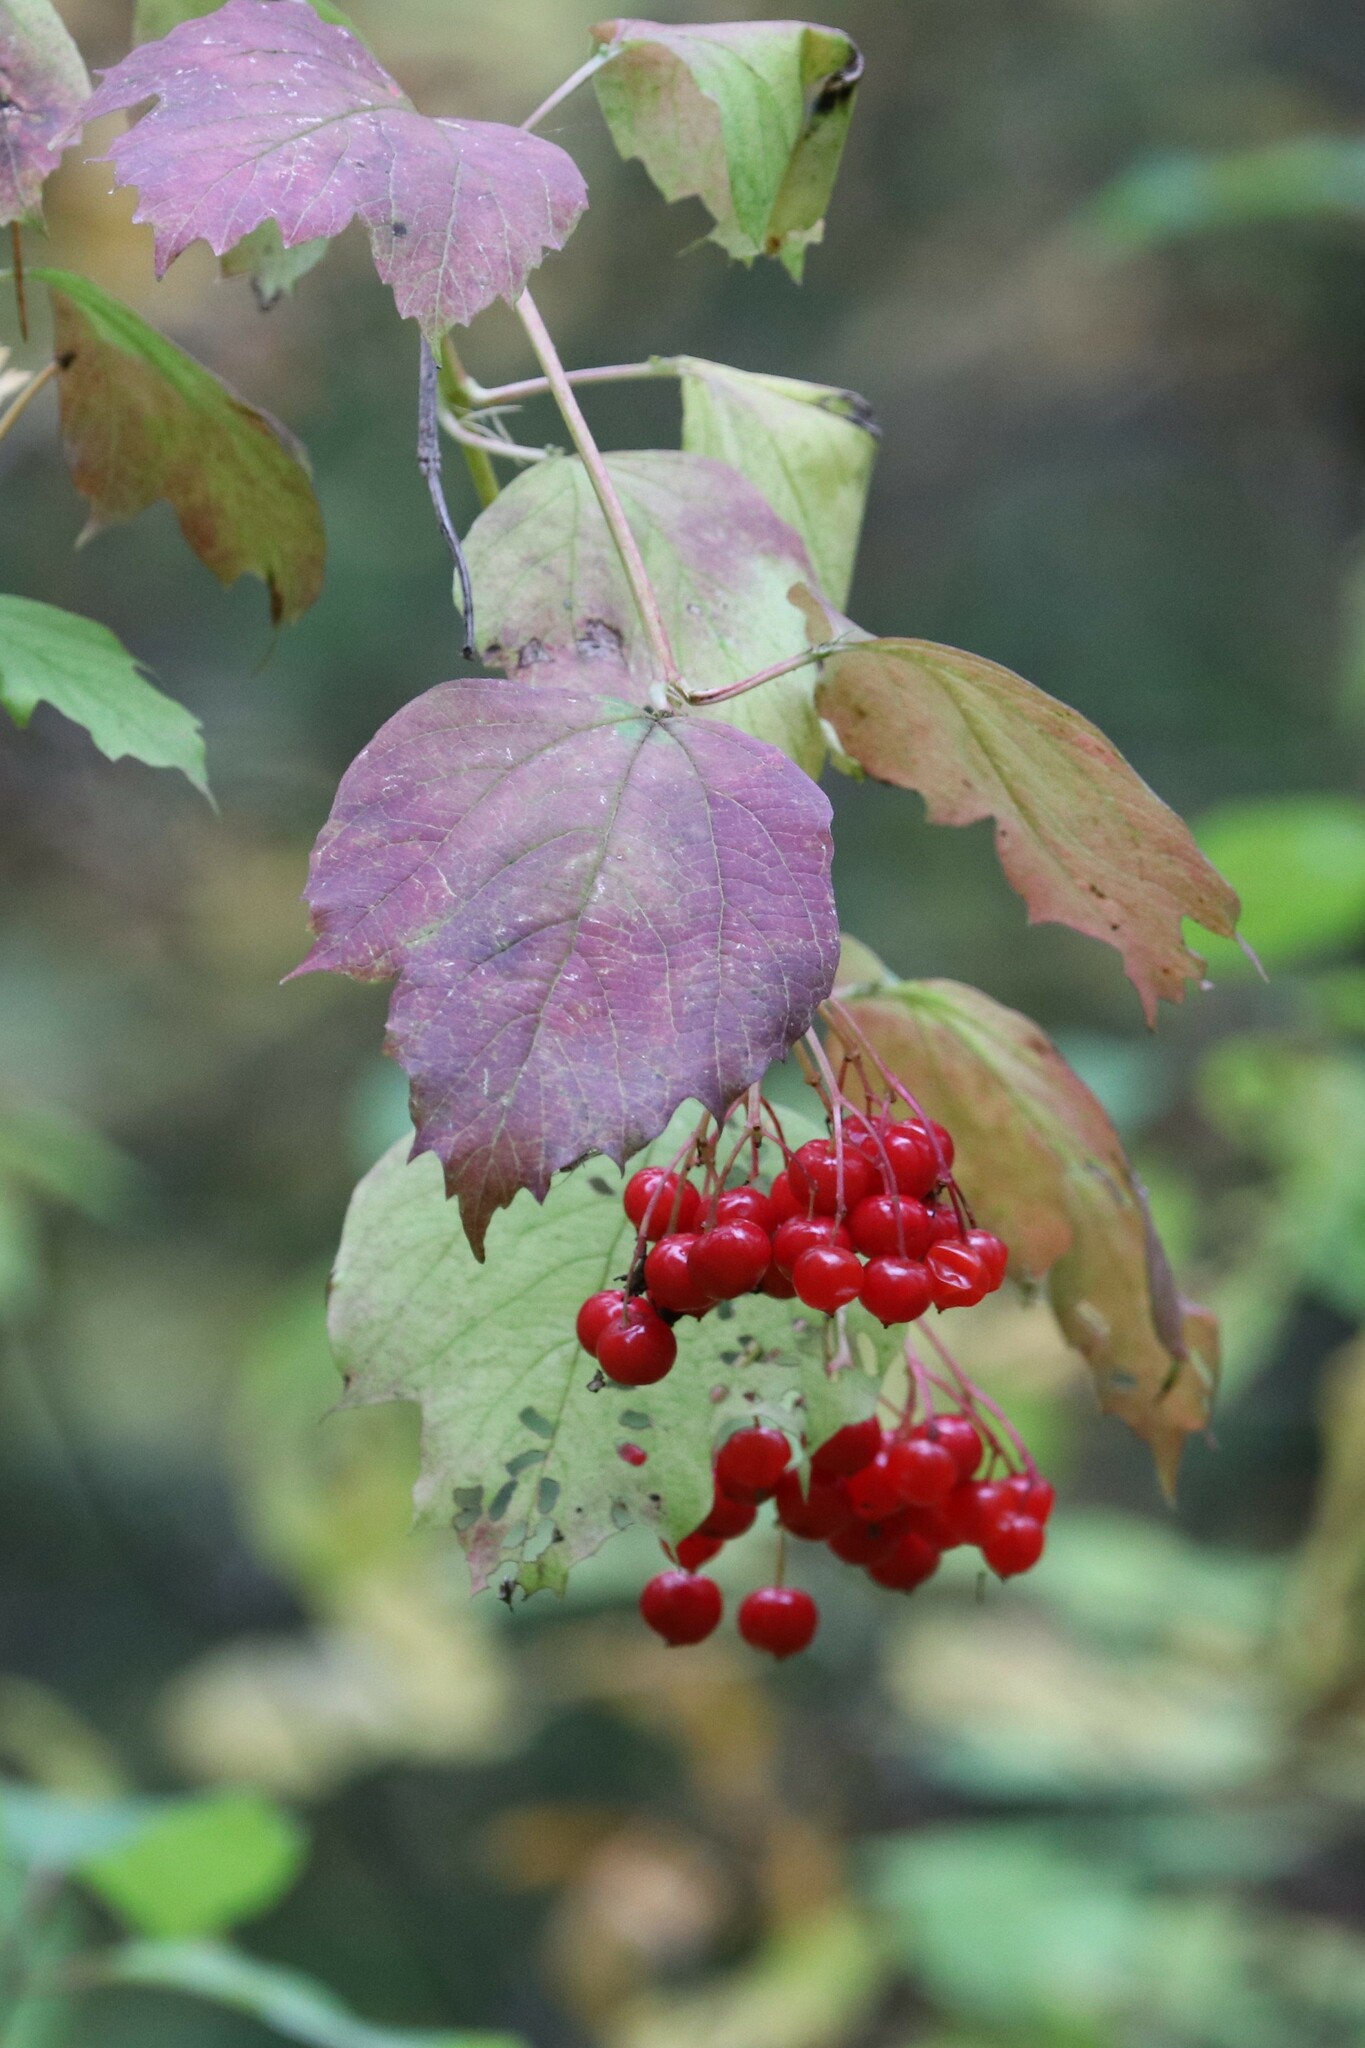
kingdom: Plantae
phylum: Tracheophyta
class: Magnoliopsida
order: Dipsacales
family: Viburnaceae
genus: Viburnum
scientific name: Viburnum opulus
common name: Guelder-rose
